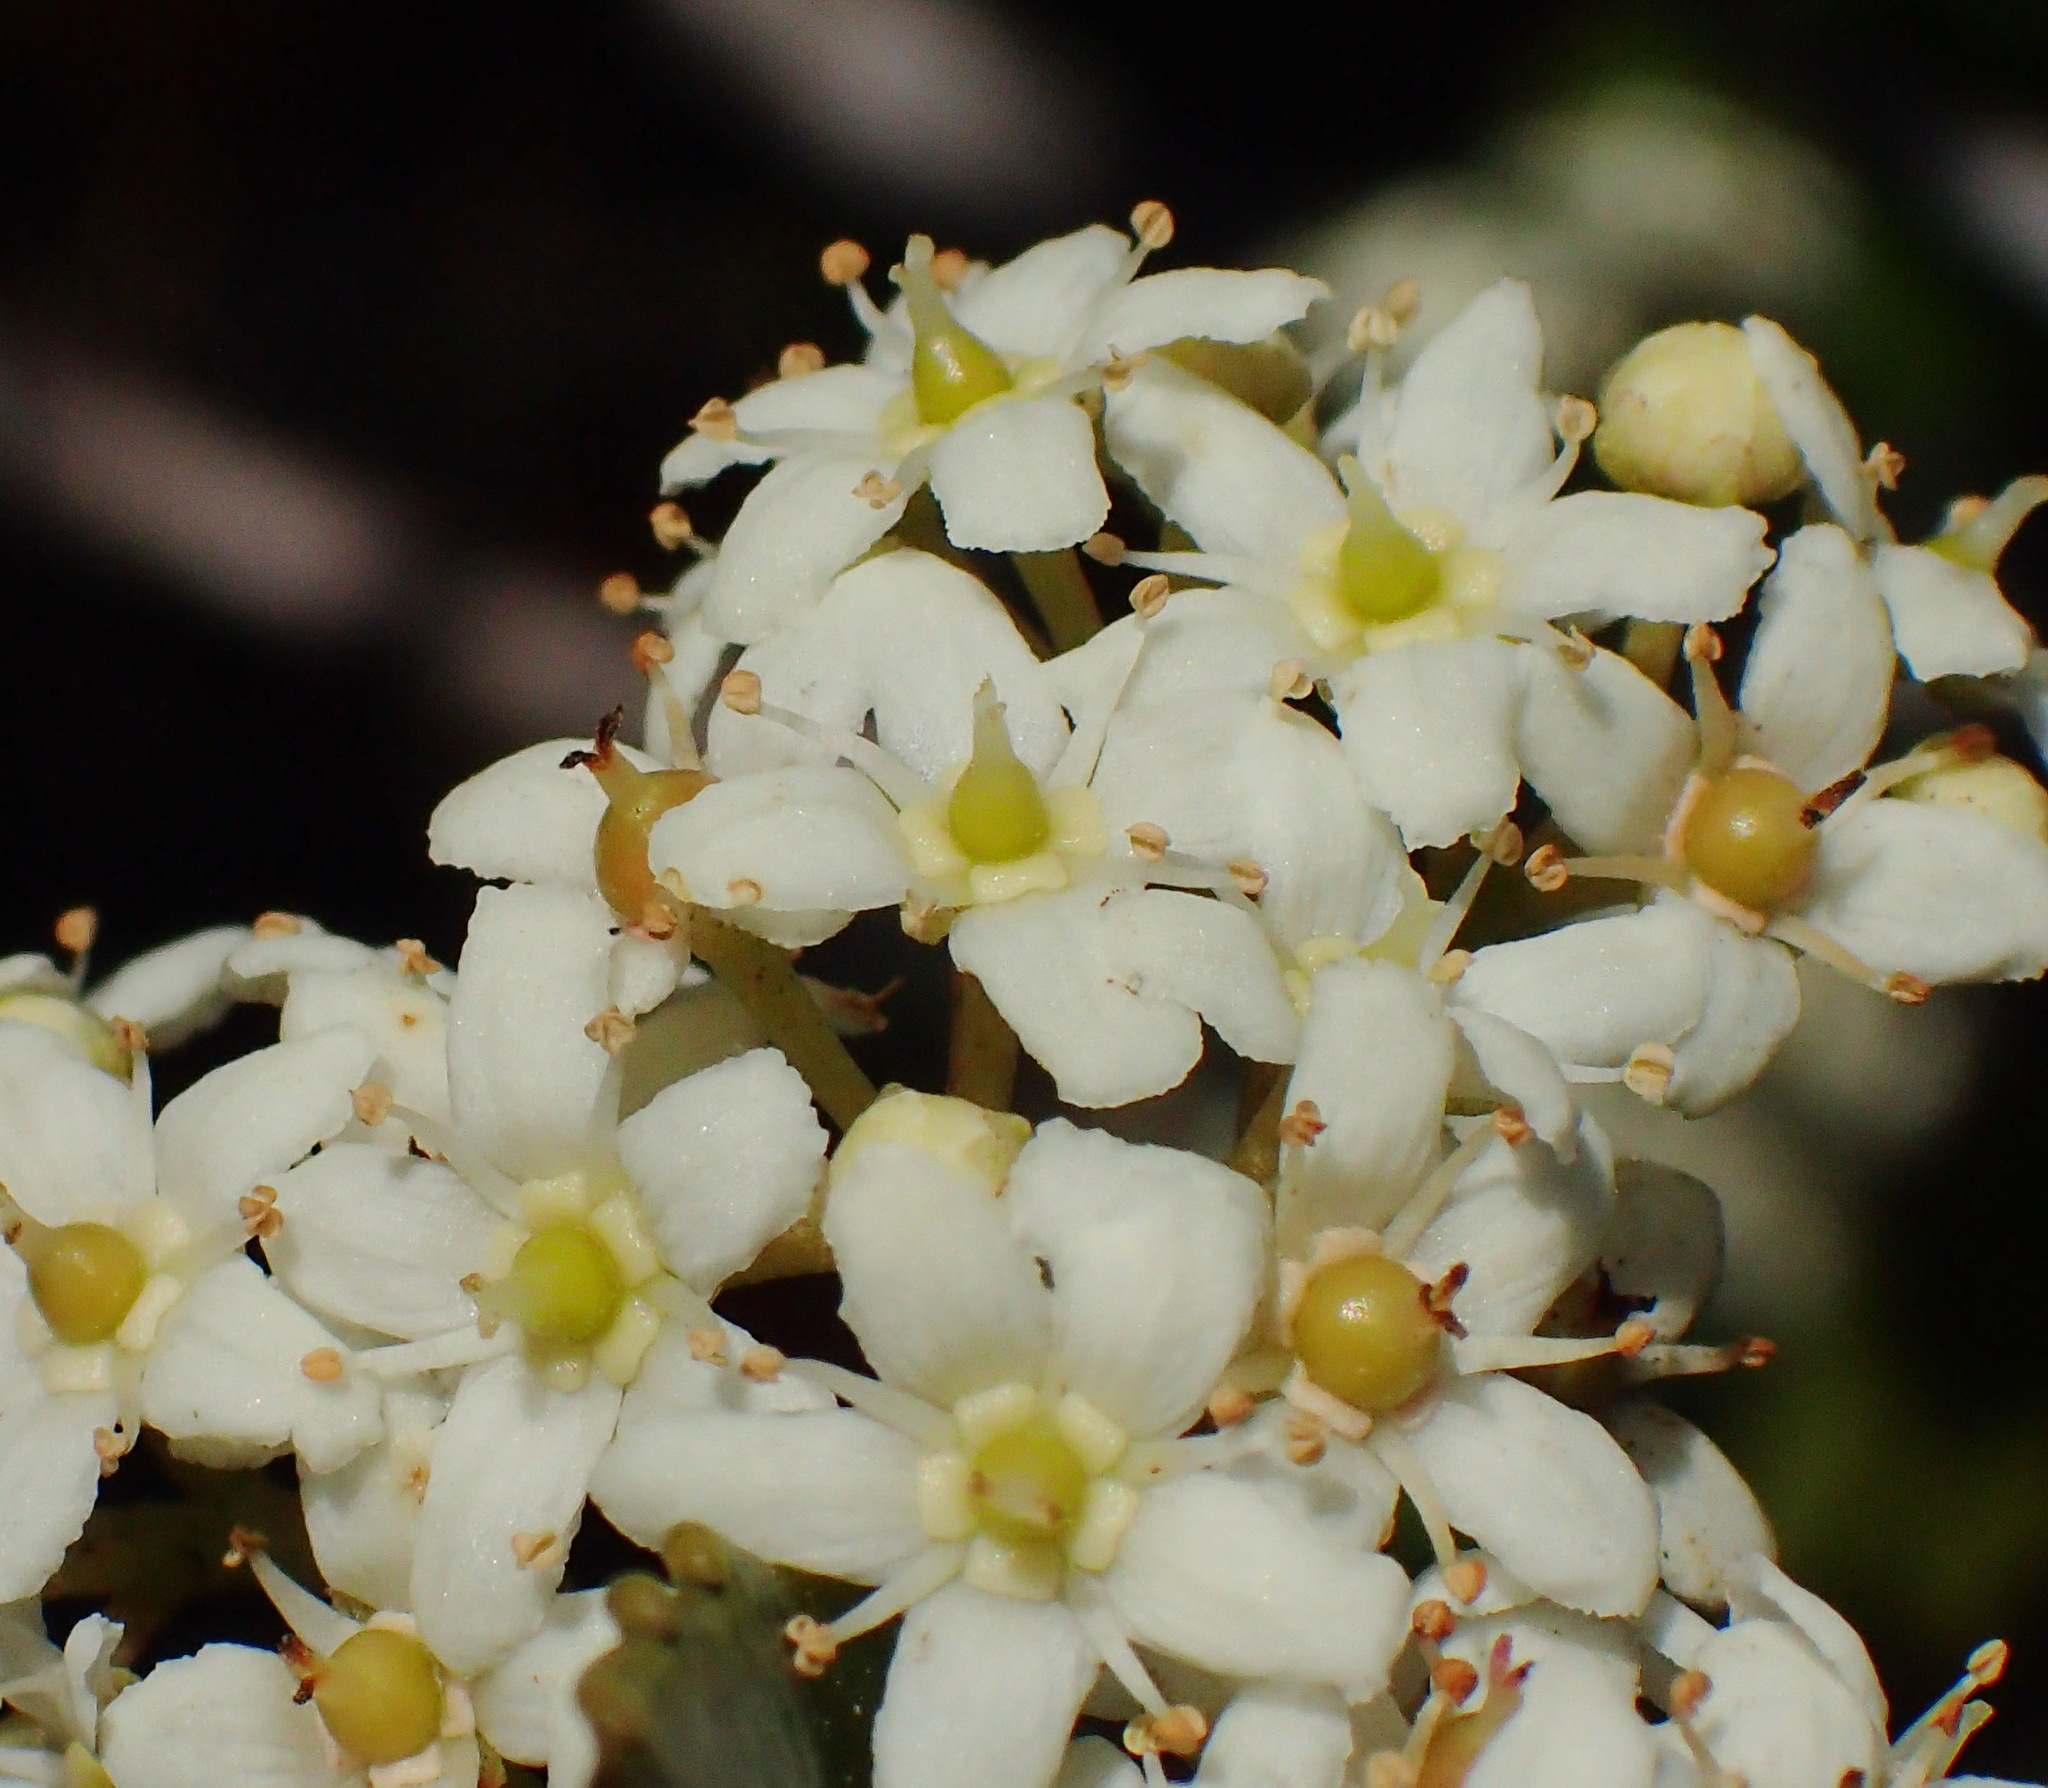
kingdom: Plantae
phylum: Tracheophyta
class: Magnoliopsida
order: Celastrales
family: Celastraceae
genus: Cassine
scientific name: Cassine peragua
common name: Cape saffron
